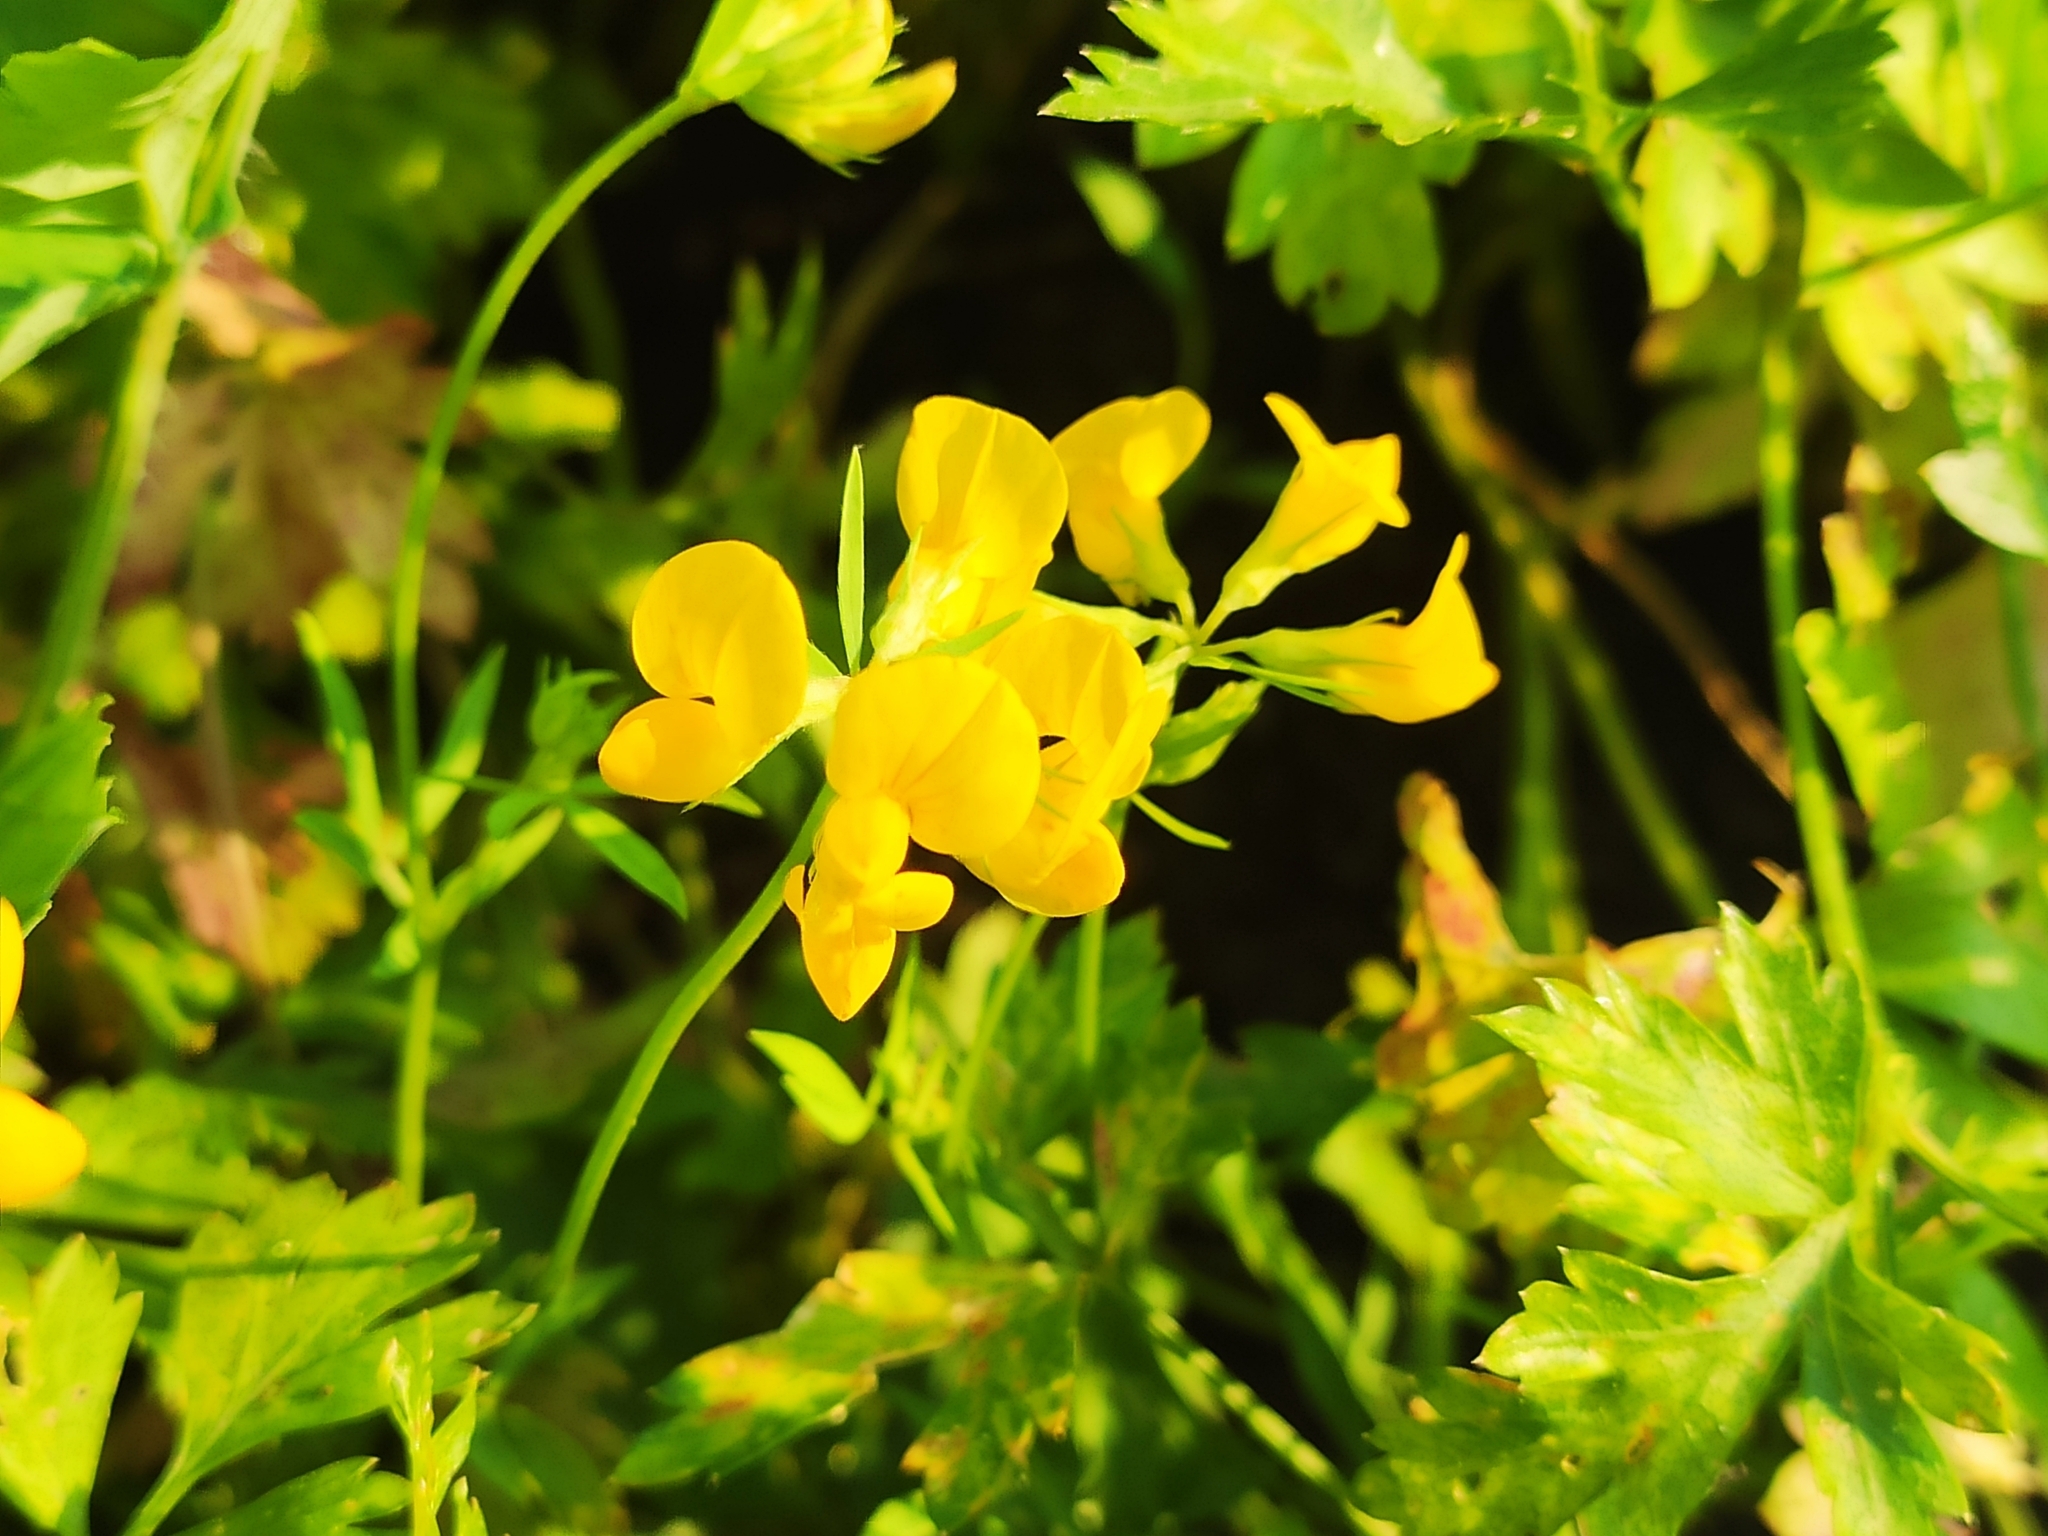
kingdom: Plantae
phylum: Tracheophyta
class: Magnoliopsida
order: Fabales
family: Fabaceae
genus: Lathyrus
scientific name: Lathyrus pratensis
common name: Meadow vetchling
